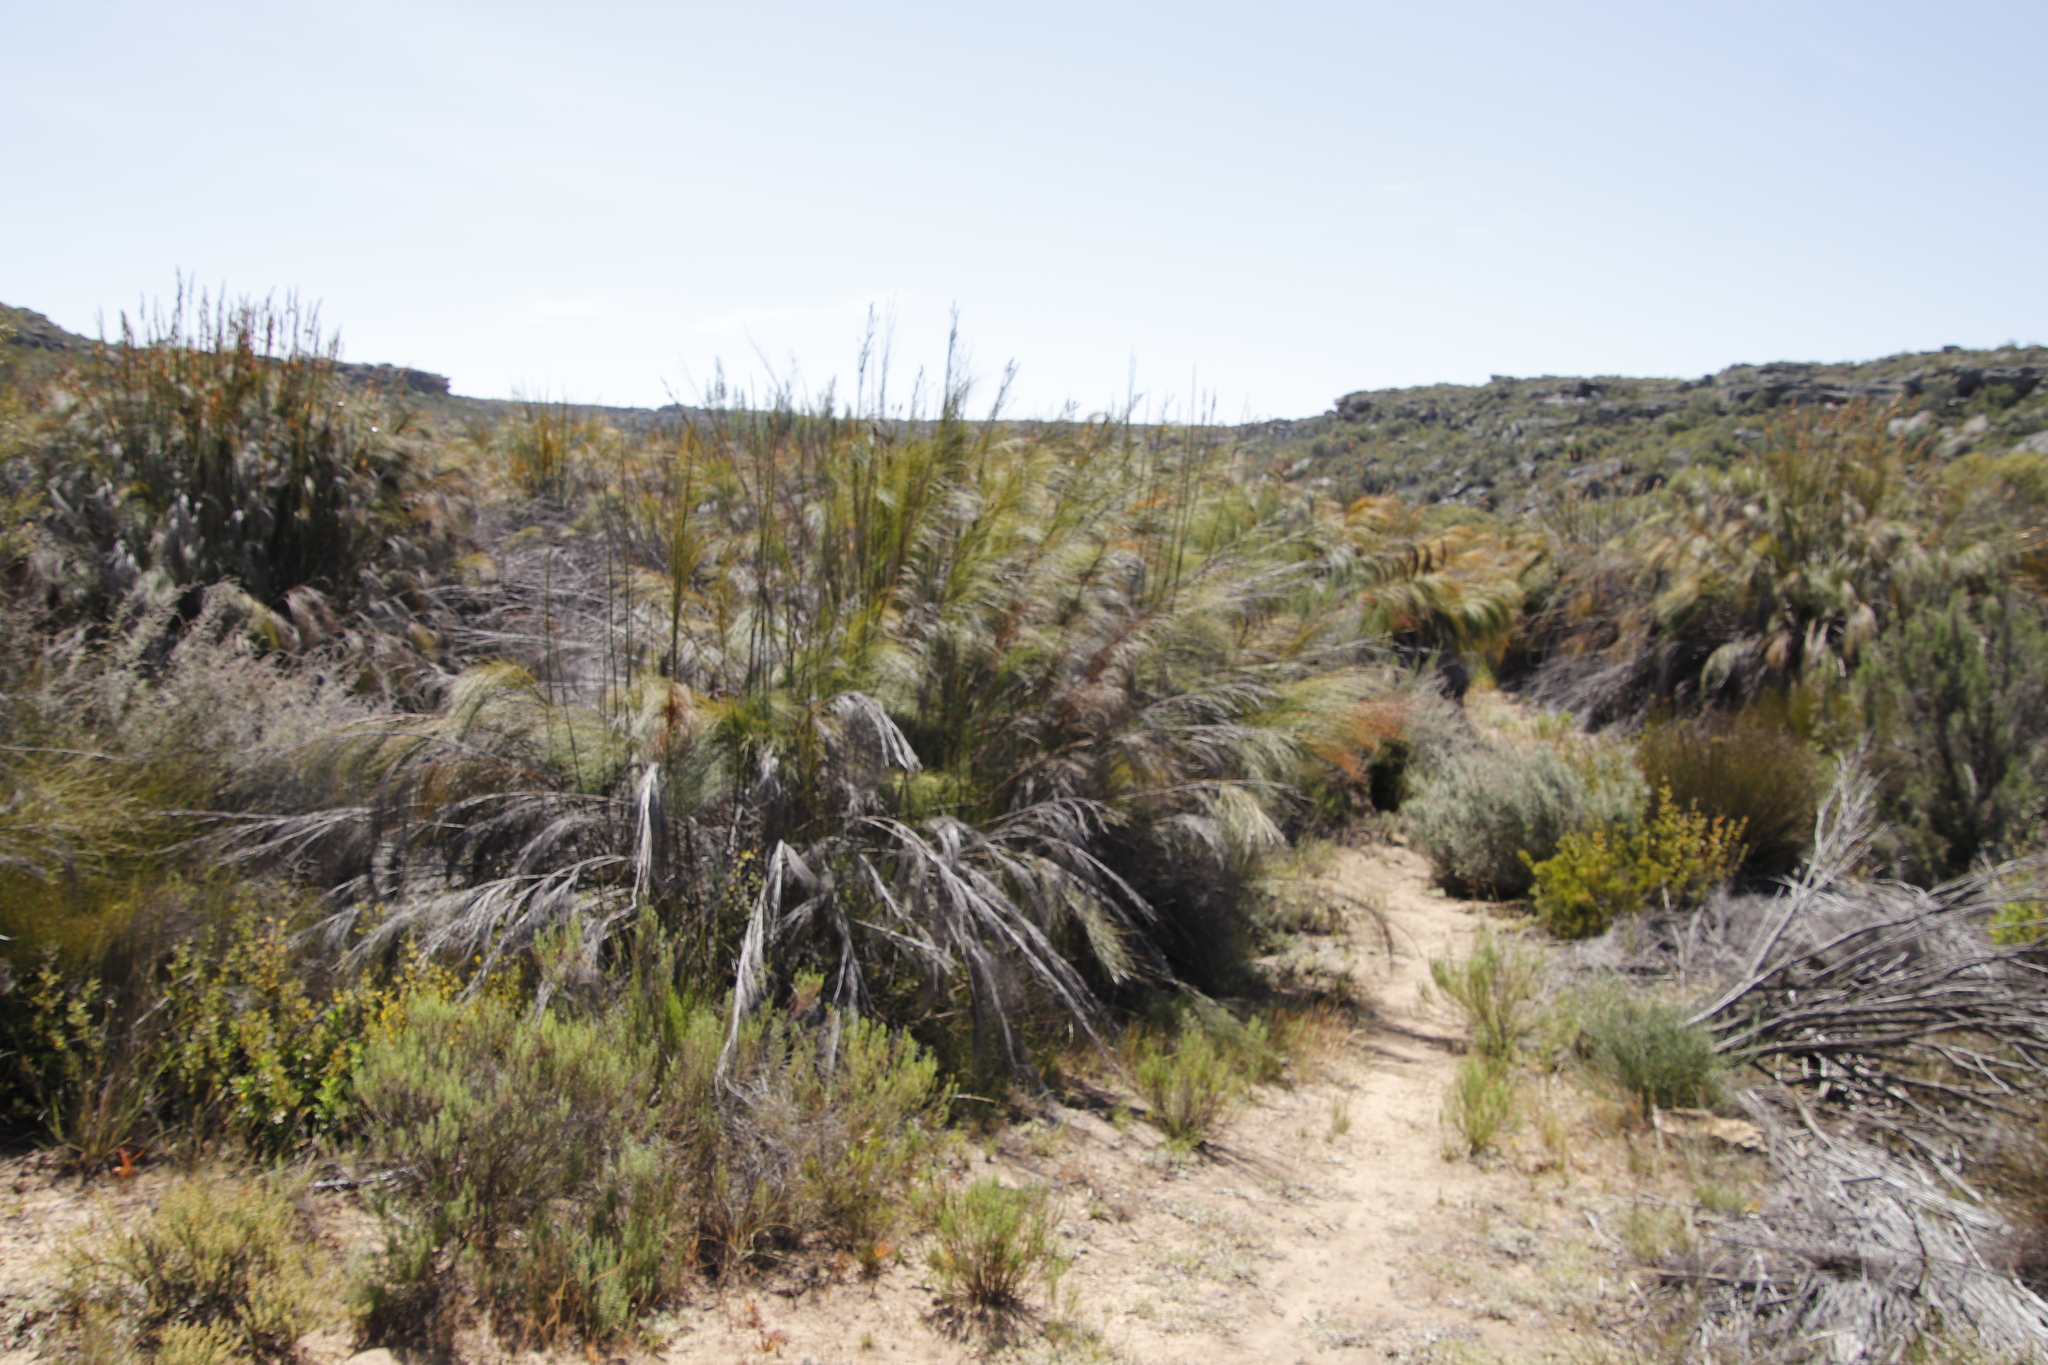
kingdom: Plantae
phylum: Tracheophyta
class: Liliopsida
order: Poales
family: Restionaceae
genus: Cannomois
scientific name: Cannomois robusta
